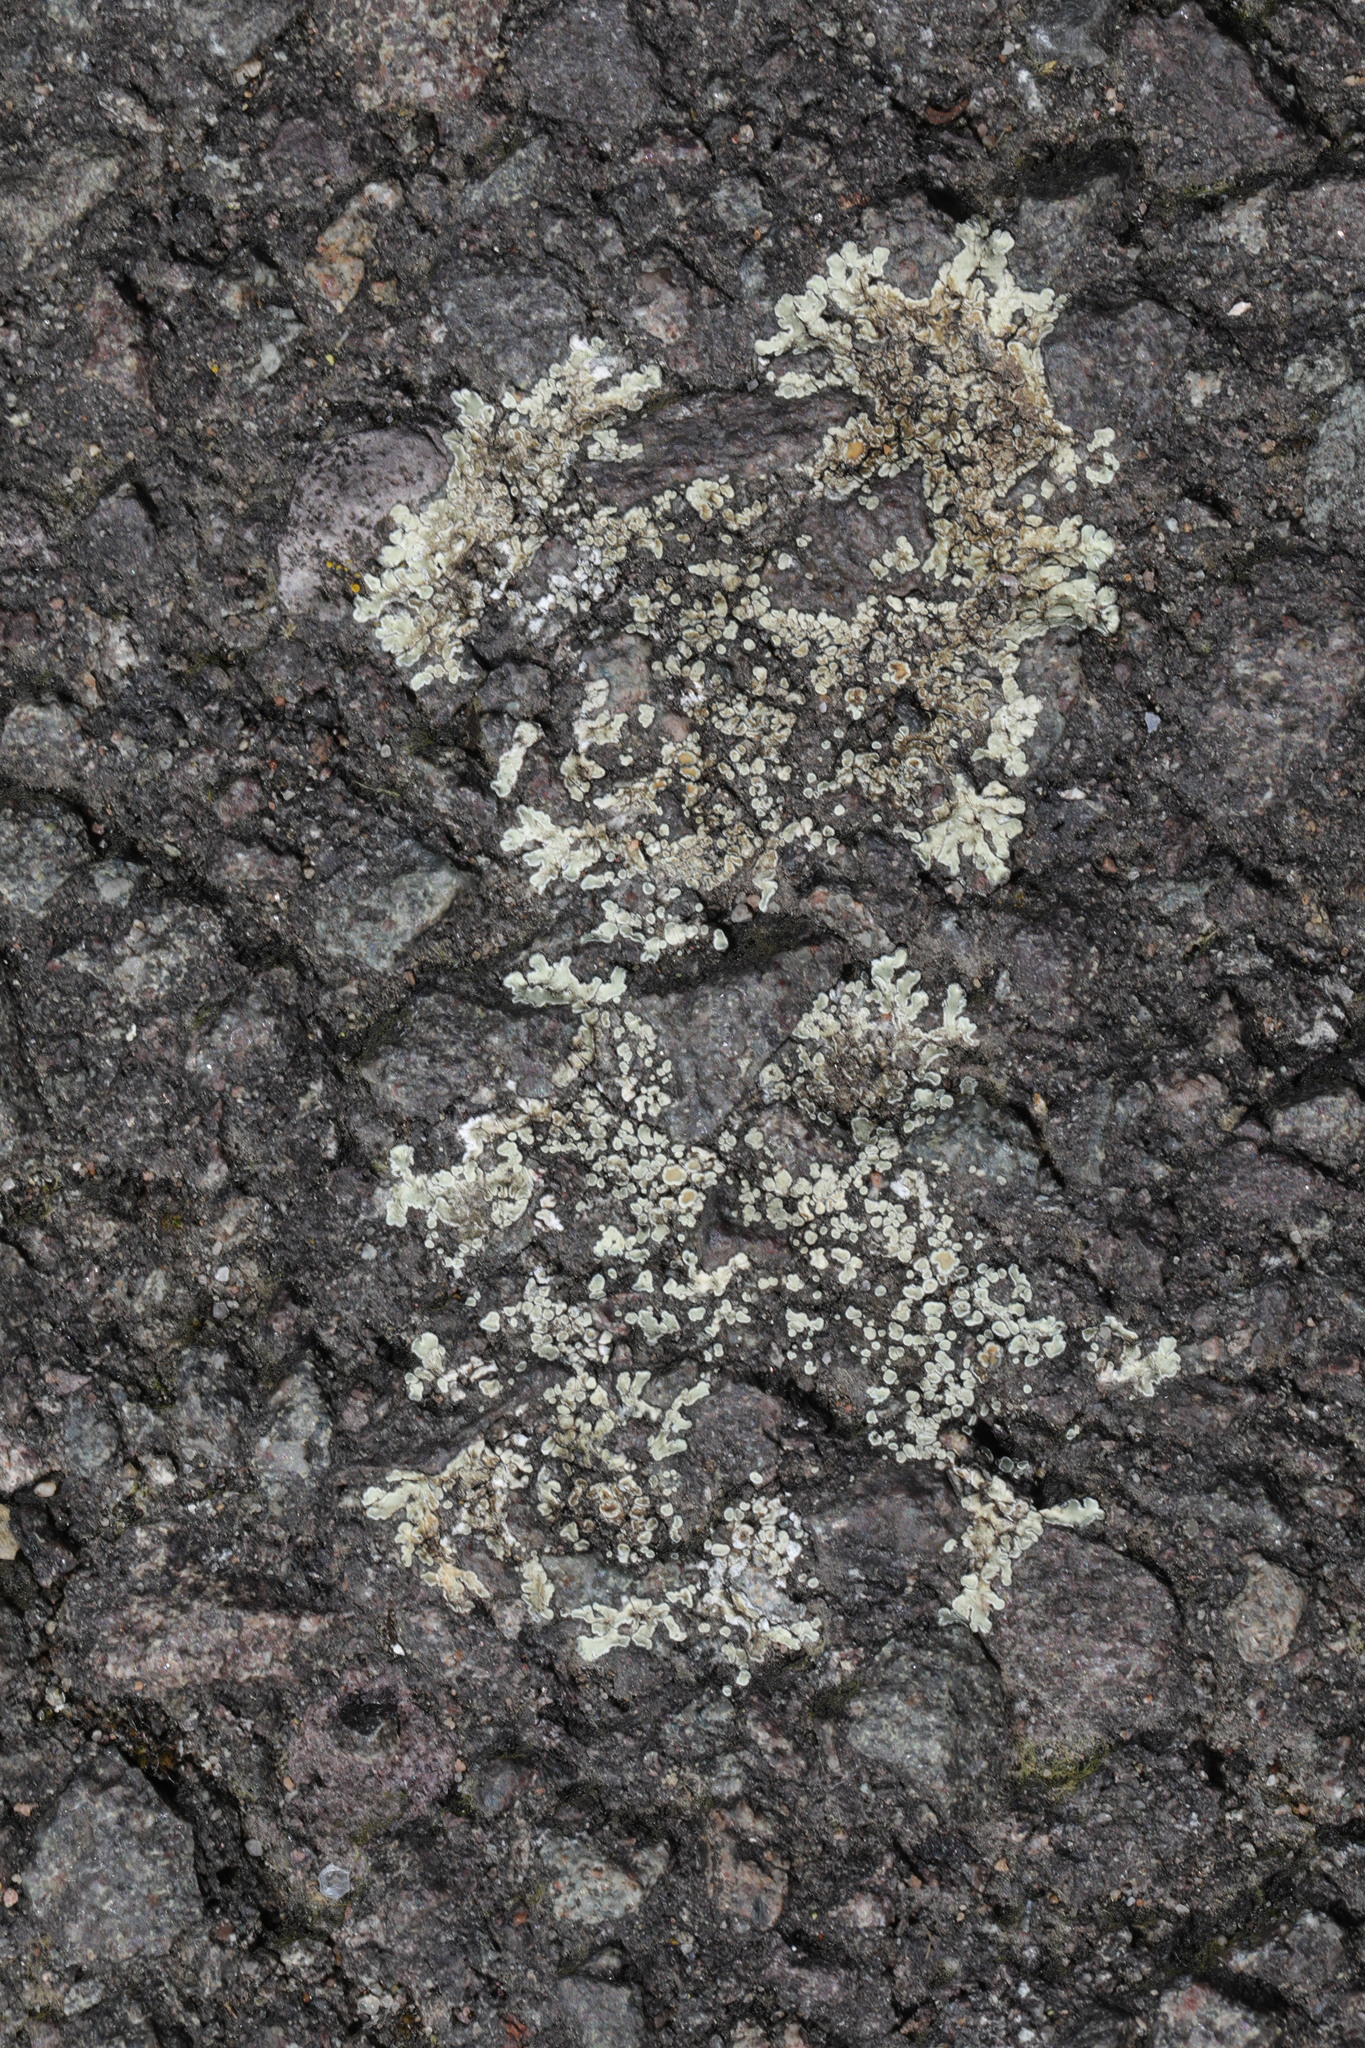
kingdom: Fungi
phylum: Ascomycota
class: Lecanoromycetes
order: Lecanorales
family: Lecanoraceae
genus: Protoparmeliopsis
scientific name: Protoparmeliopsis muralis
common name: Stonewall rim lichen
